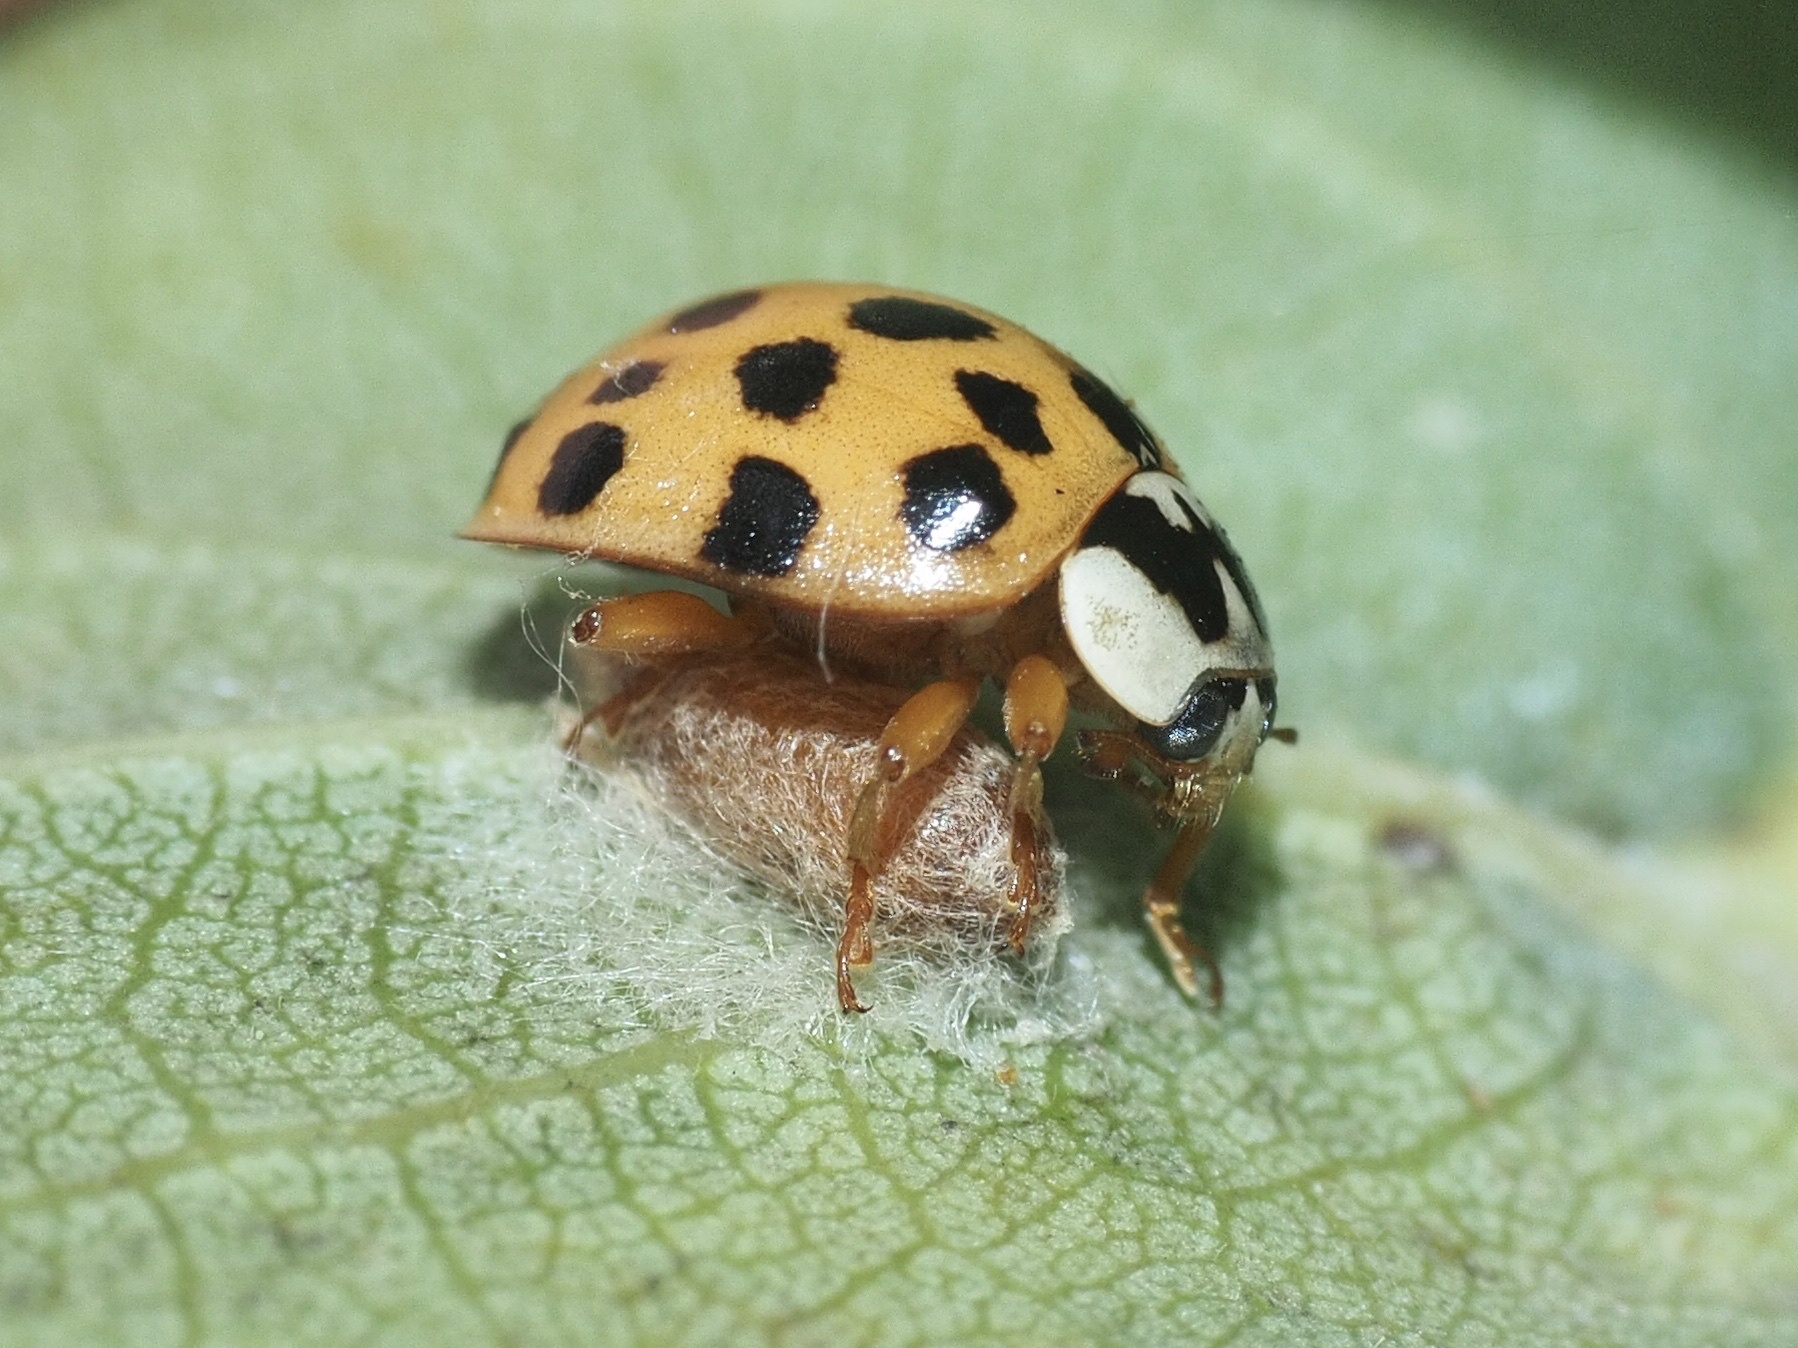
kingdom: Animalia
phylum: Arthropoda
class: Insecta
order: Hymenoptera
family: Braconidae
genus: Dinocampus
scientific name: Dinocampus coccinellae
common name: Braconid wasp
